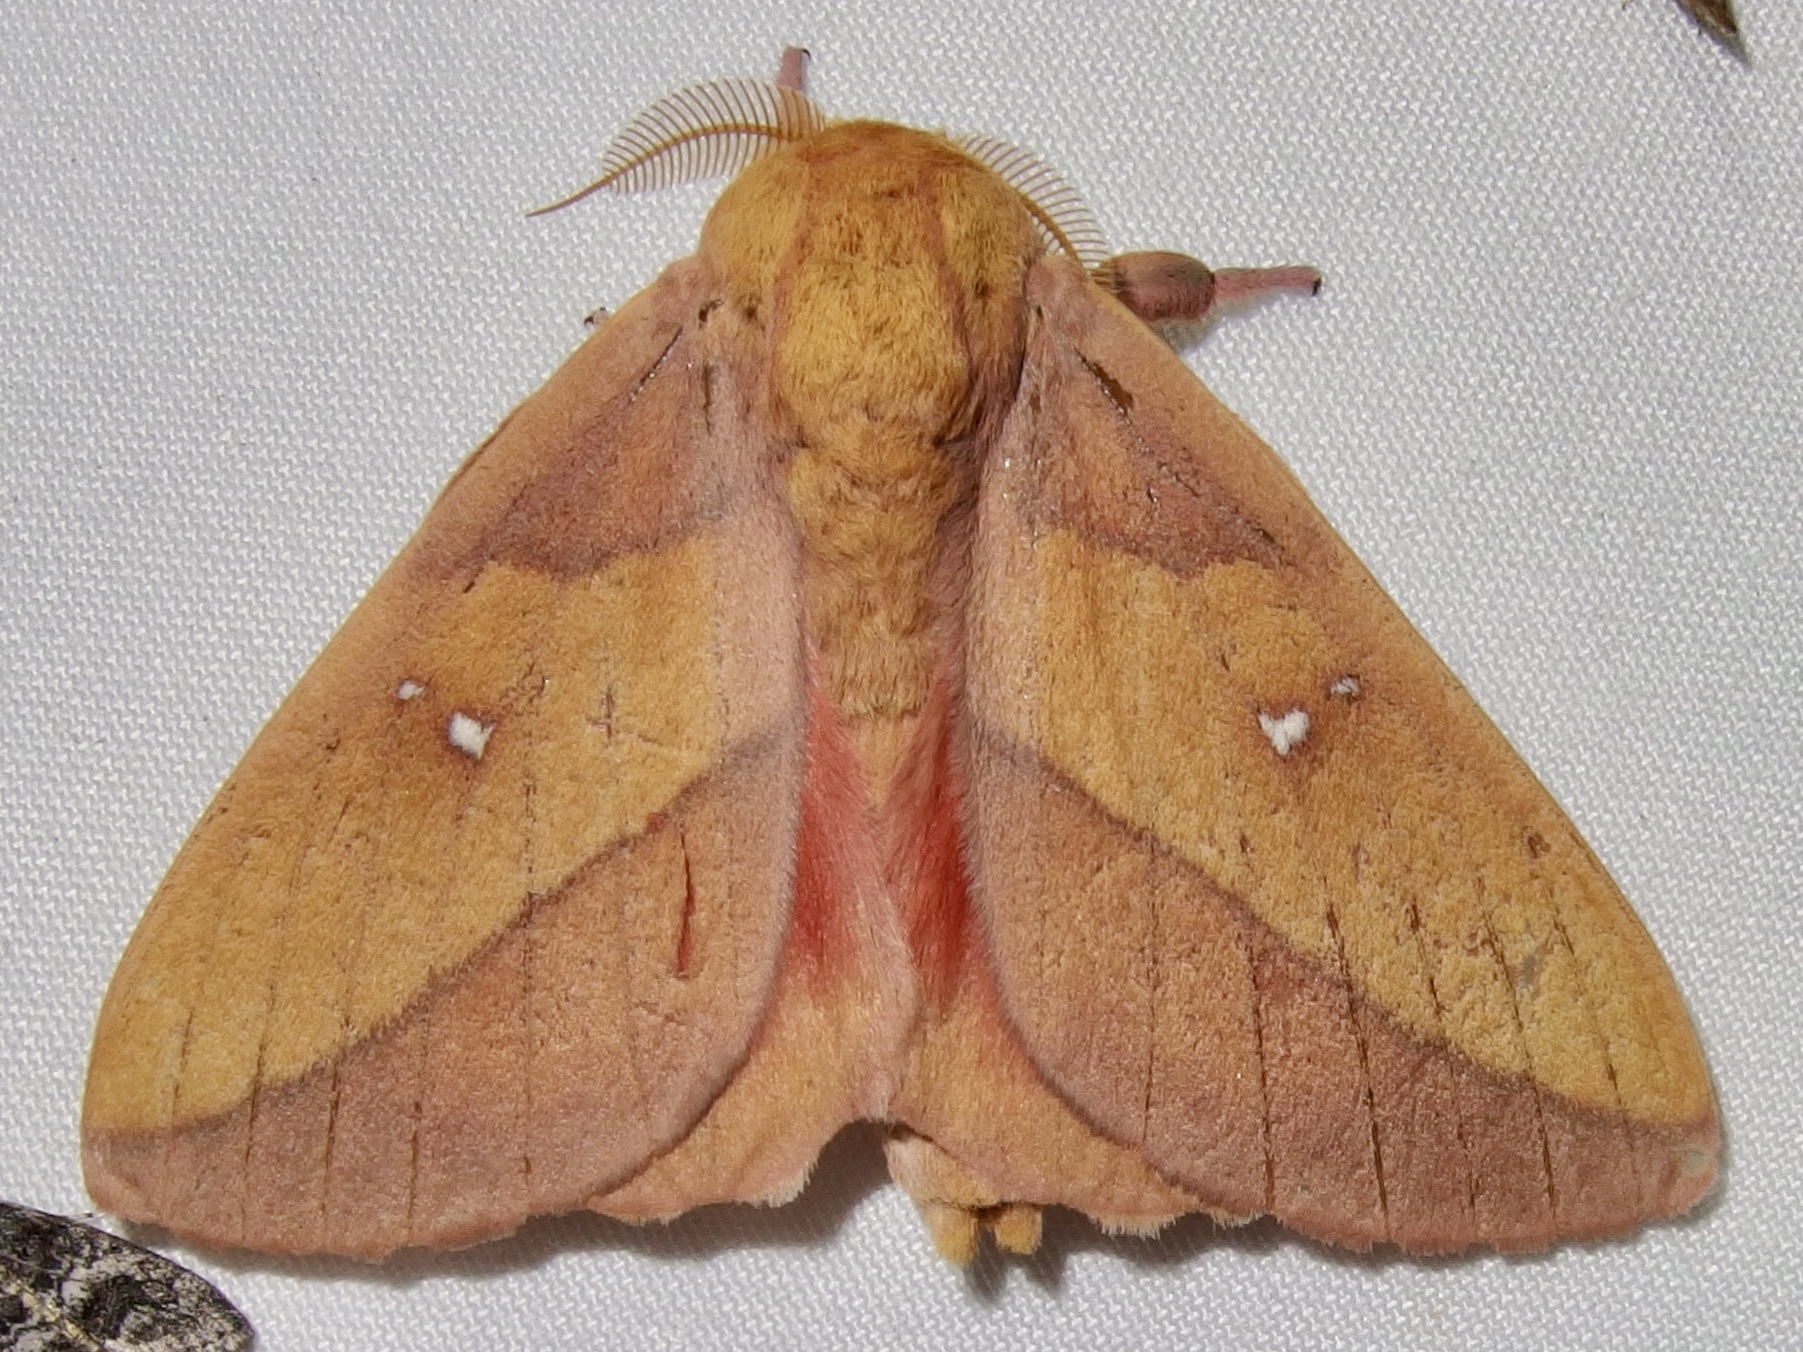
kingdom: Animalia
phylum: Arthropoda
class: Insecta
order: Lepidoptera
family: Saturniidae
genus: Syssphinx
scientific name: Syssphinx montana
